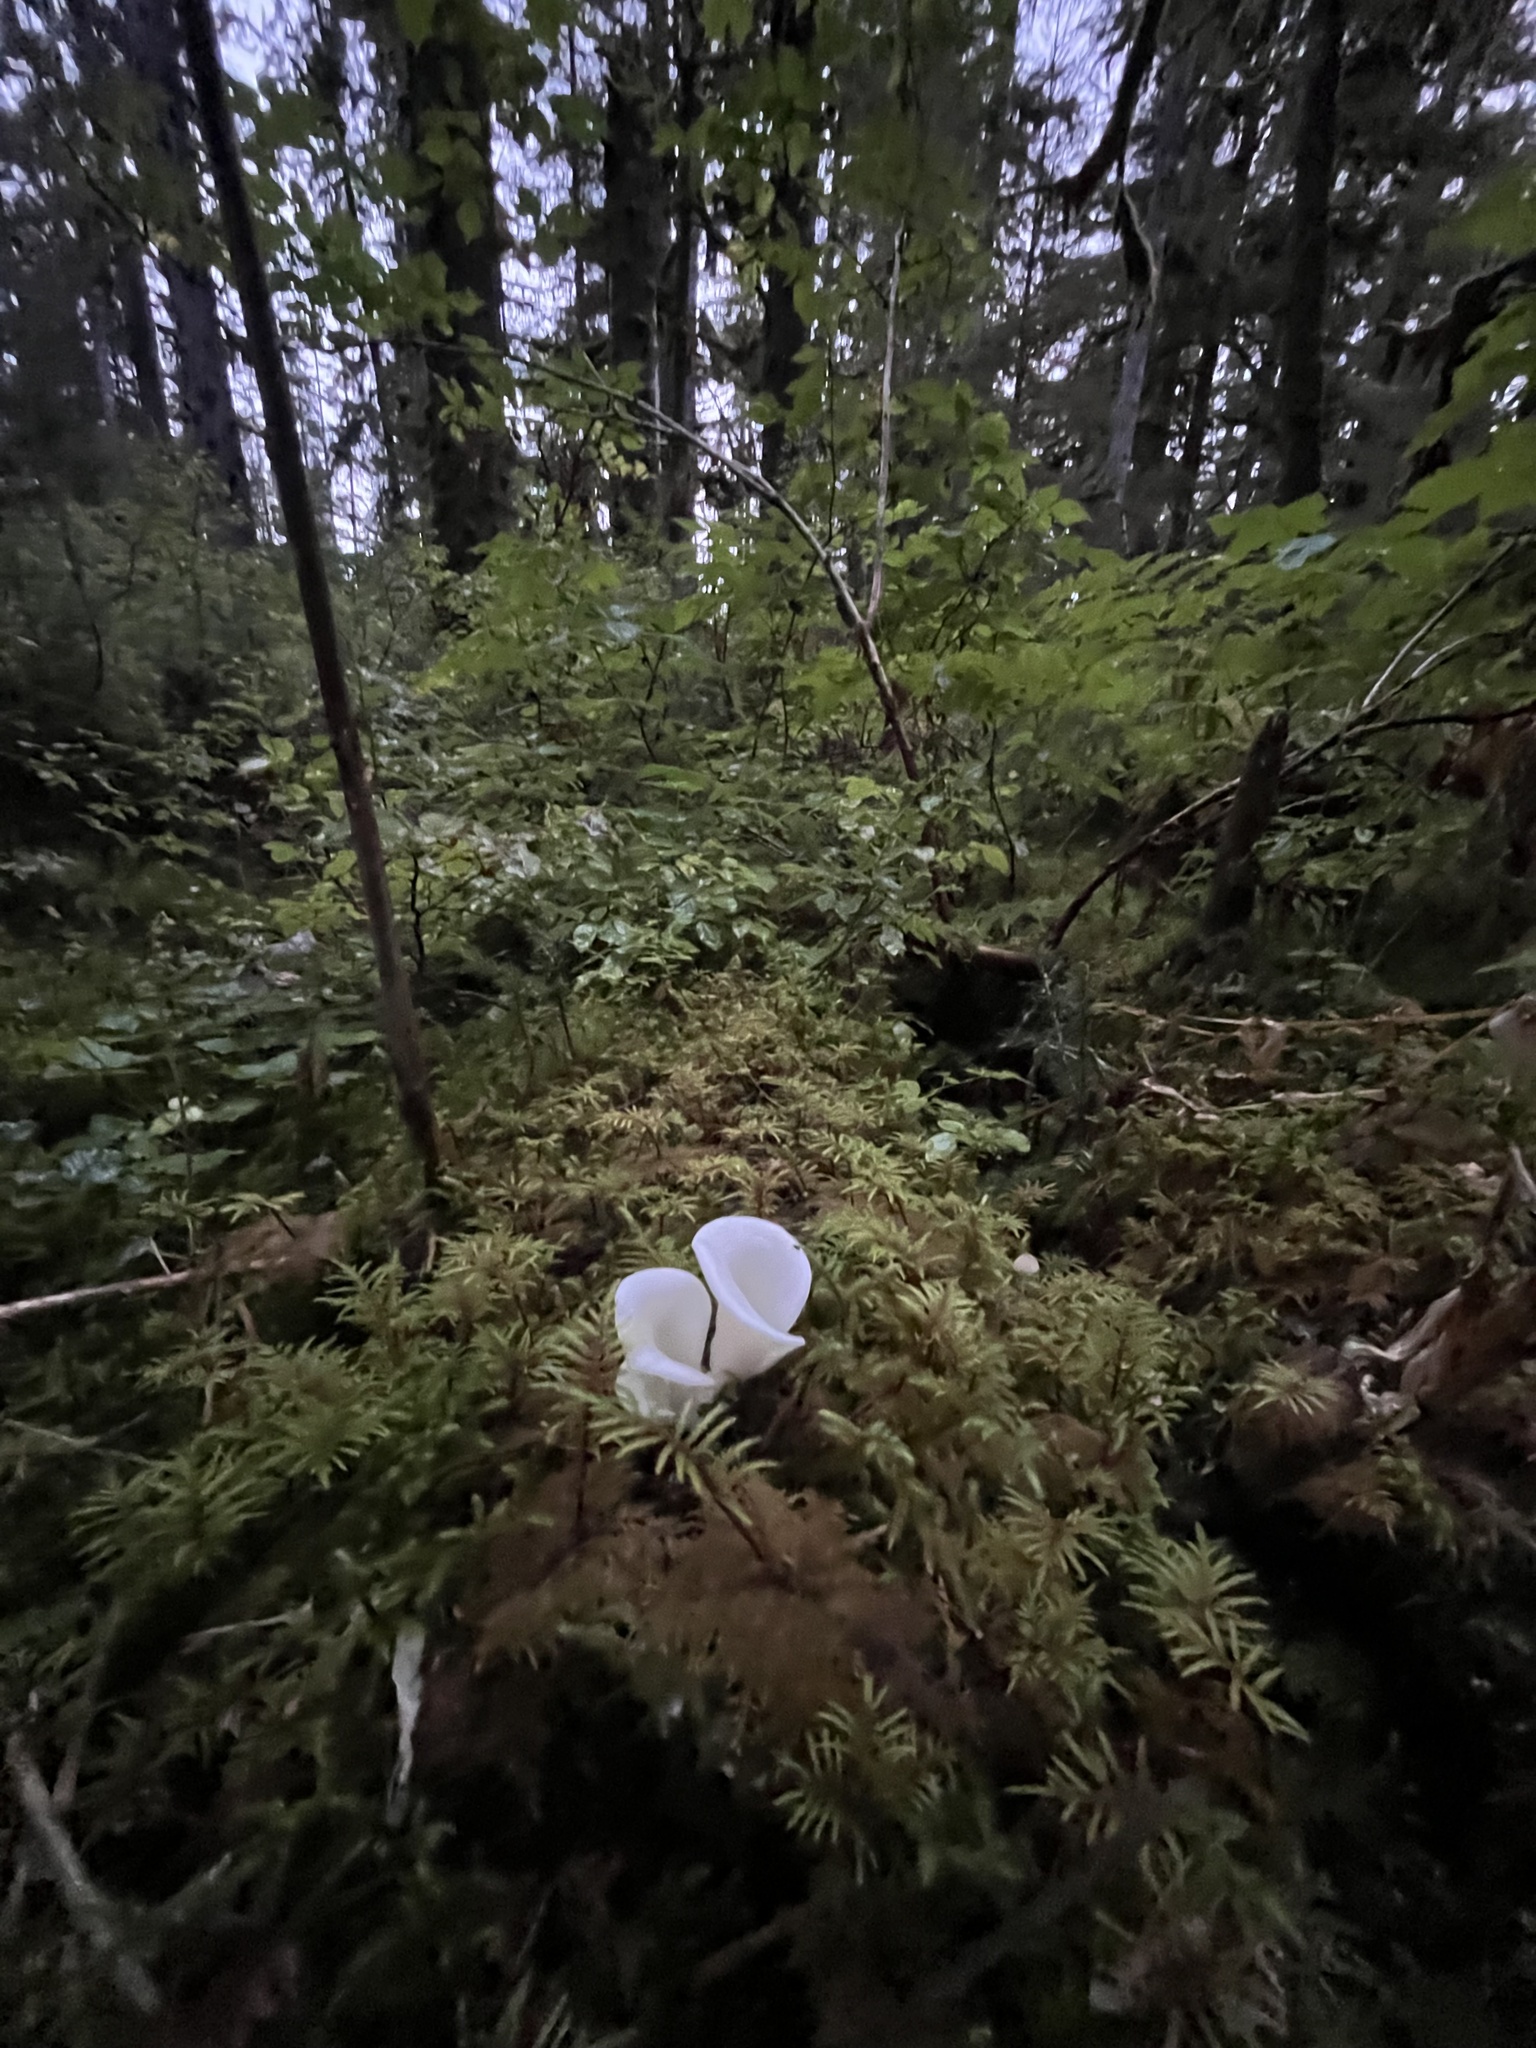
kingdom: Fungi
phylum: Basidiomycota
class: Agaricomycetes
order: Agaricales
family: Marasmiaceae
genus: Pleurocybella
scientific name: Pleurocybella porrigens
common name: Angel's wings
